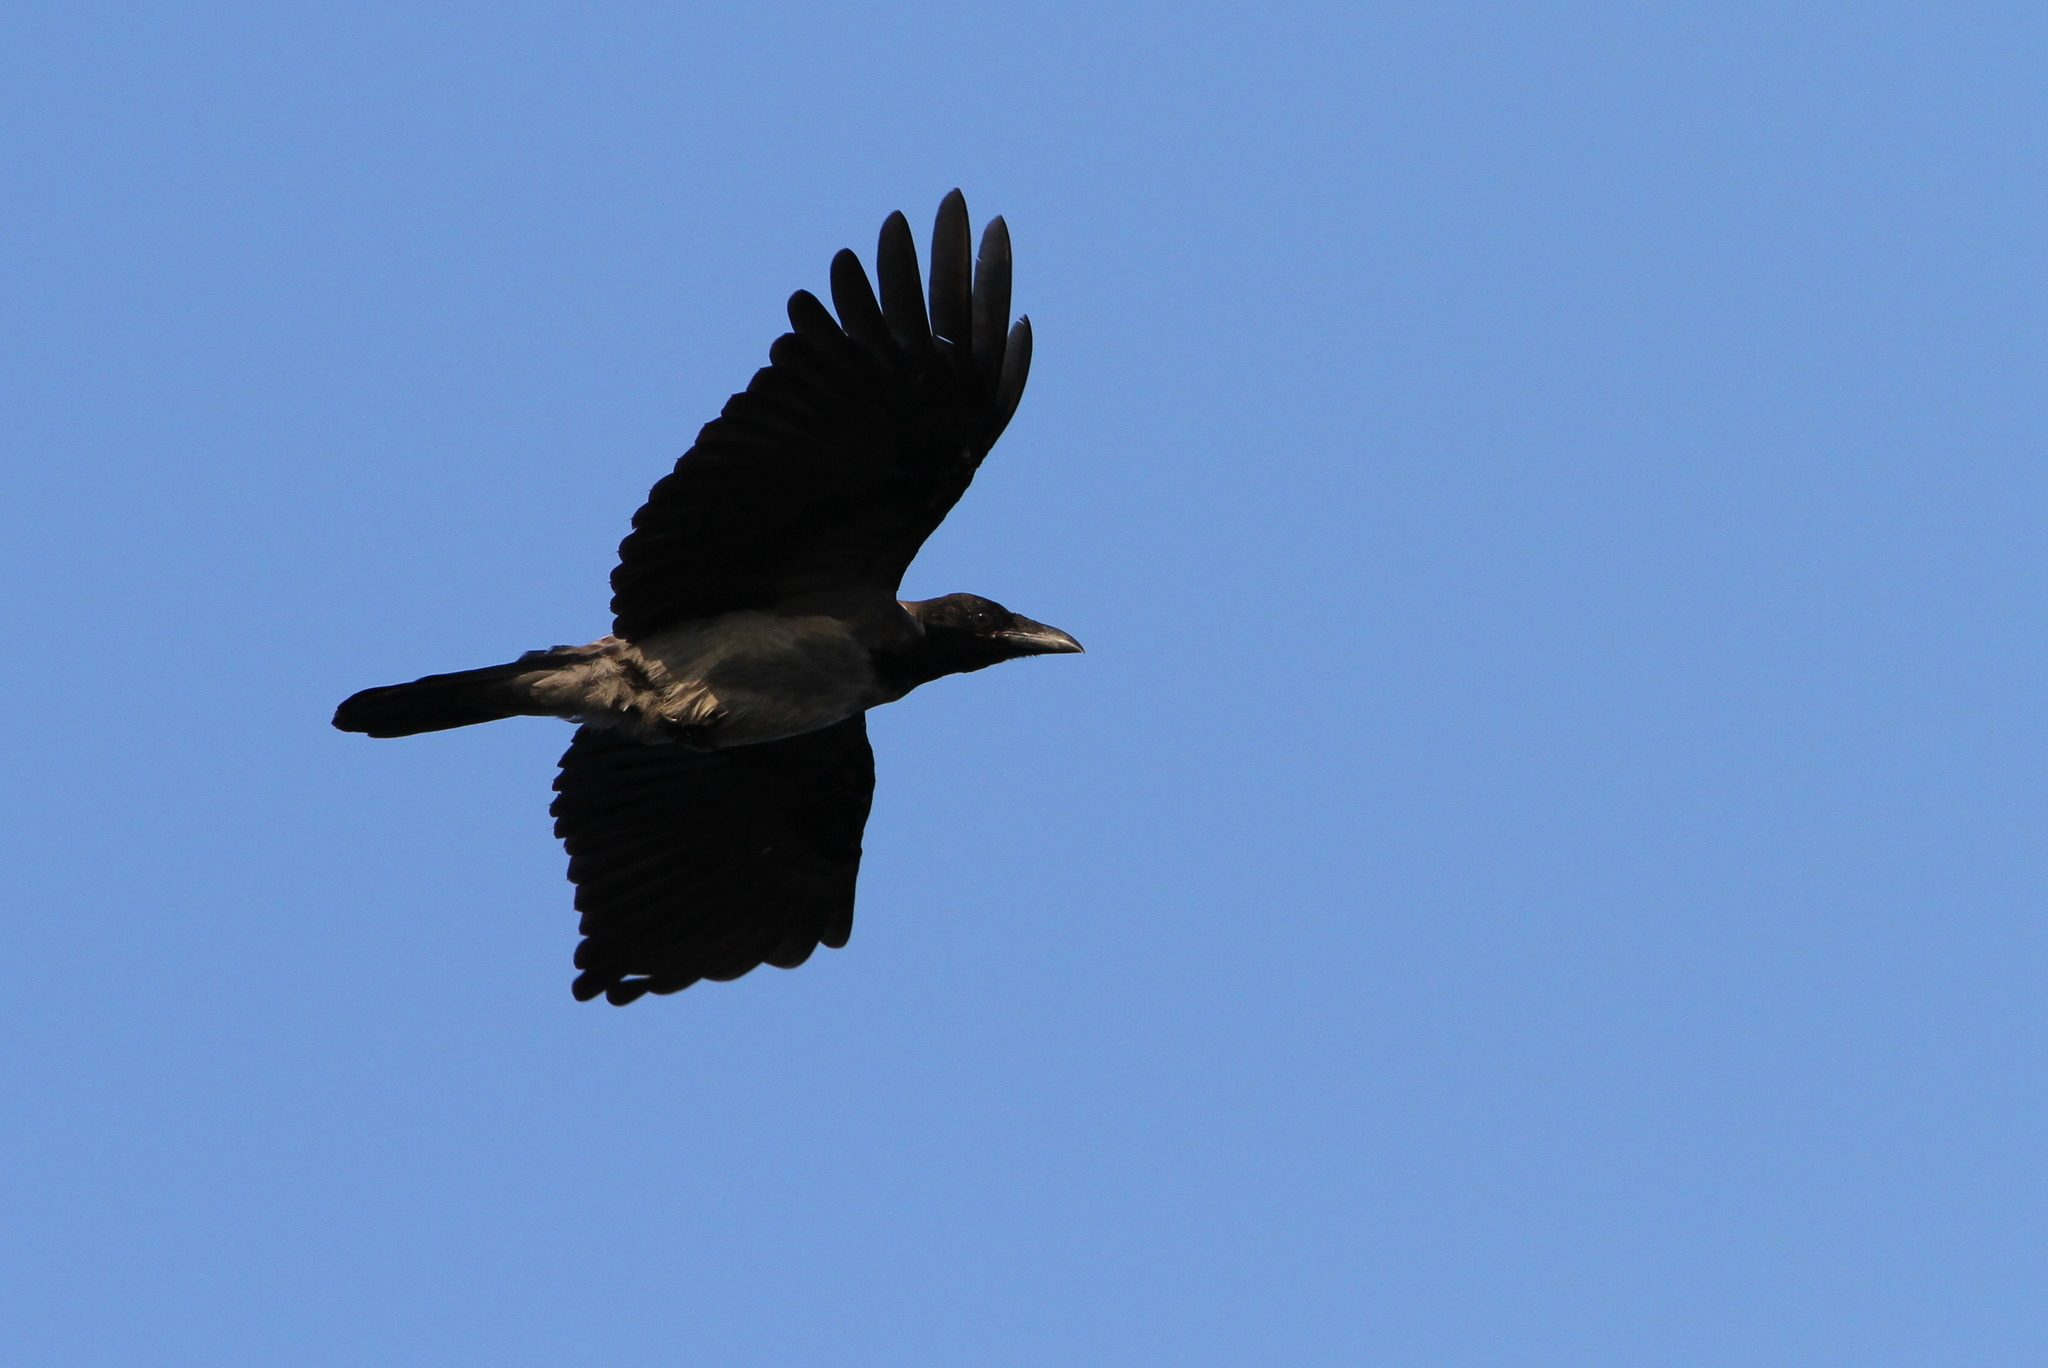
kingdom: Animalia
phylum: Chordata
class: Aves
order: Passeriformes
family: Corvidae
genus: Corvus
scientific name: Corvus cornix
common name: Hooded crow
